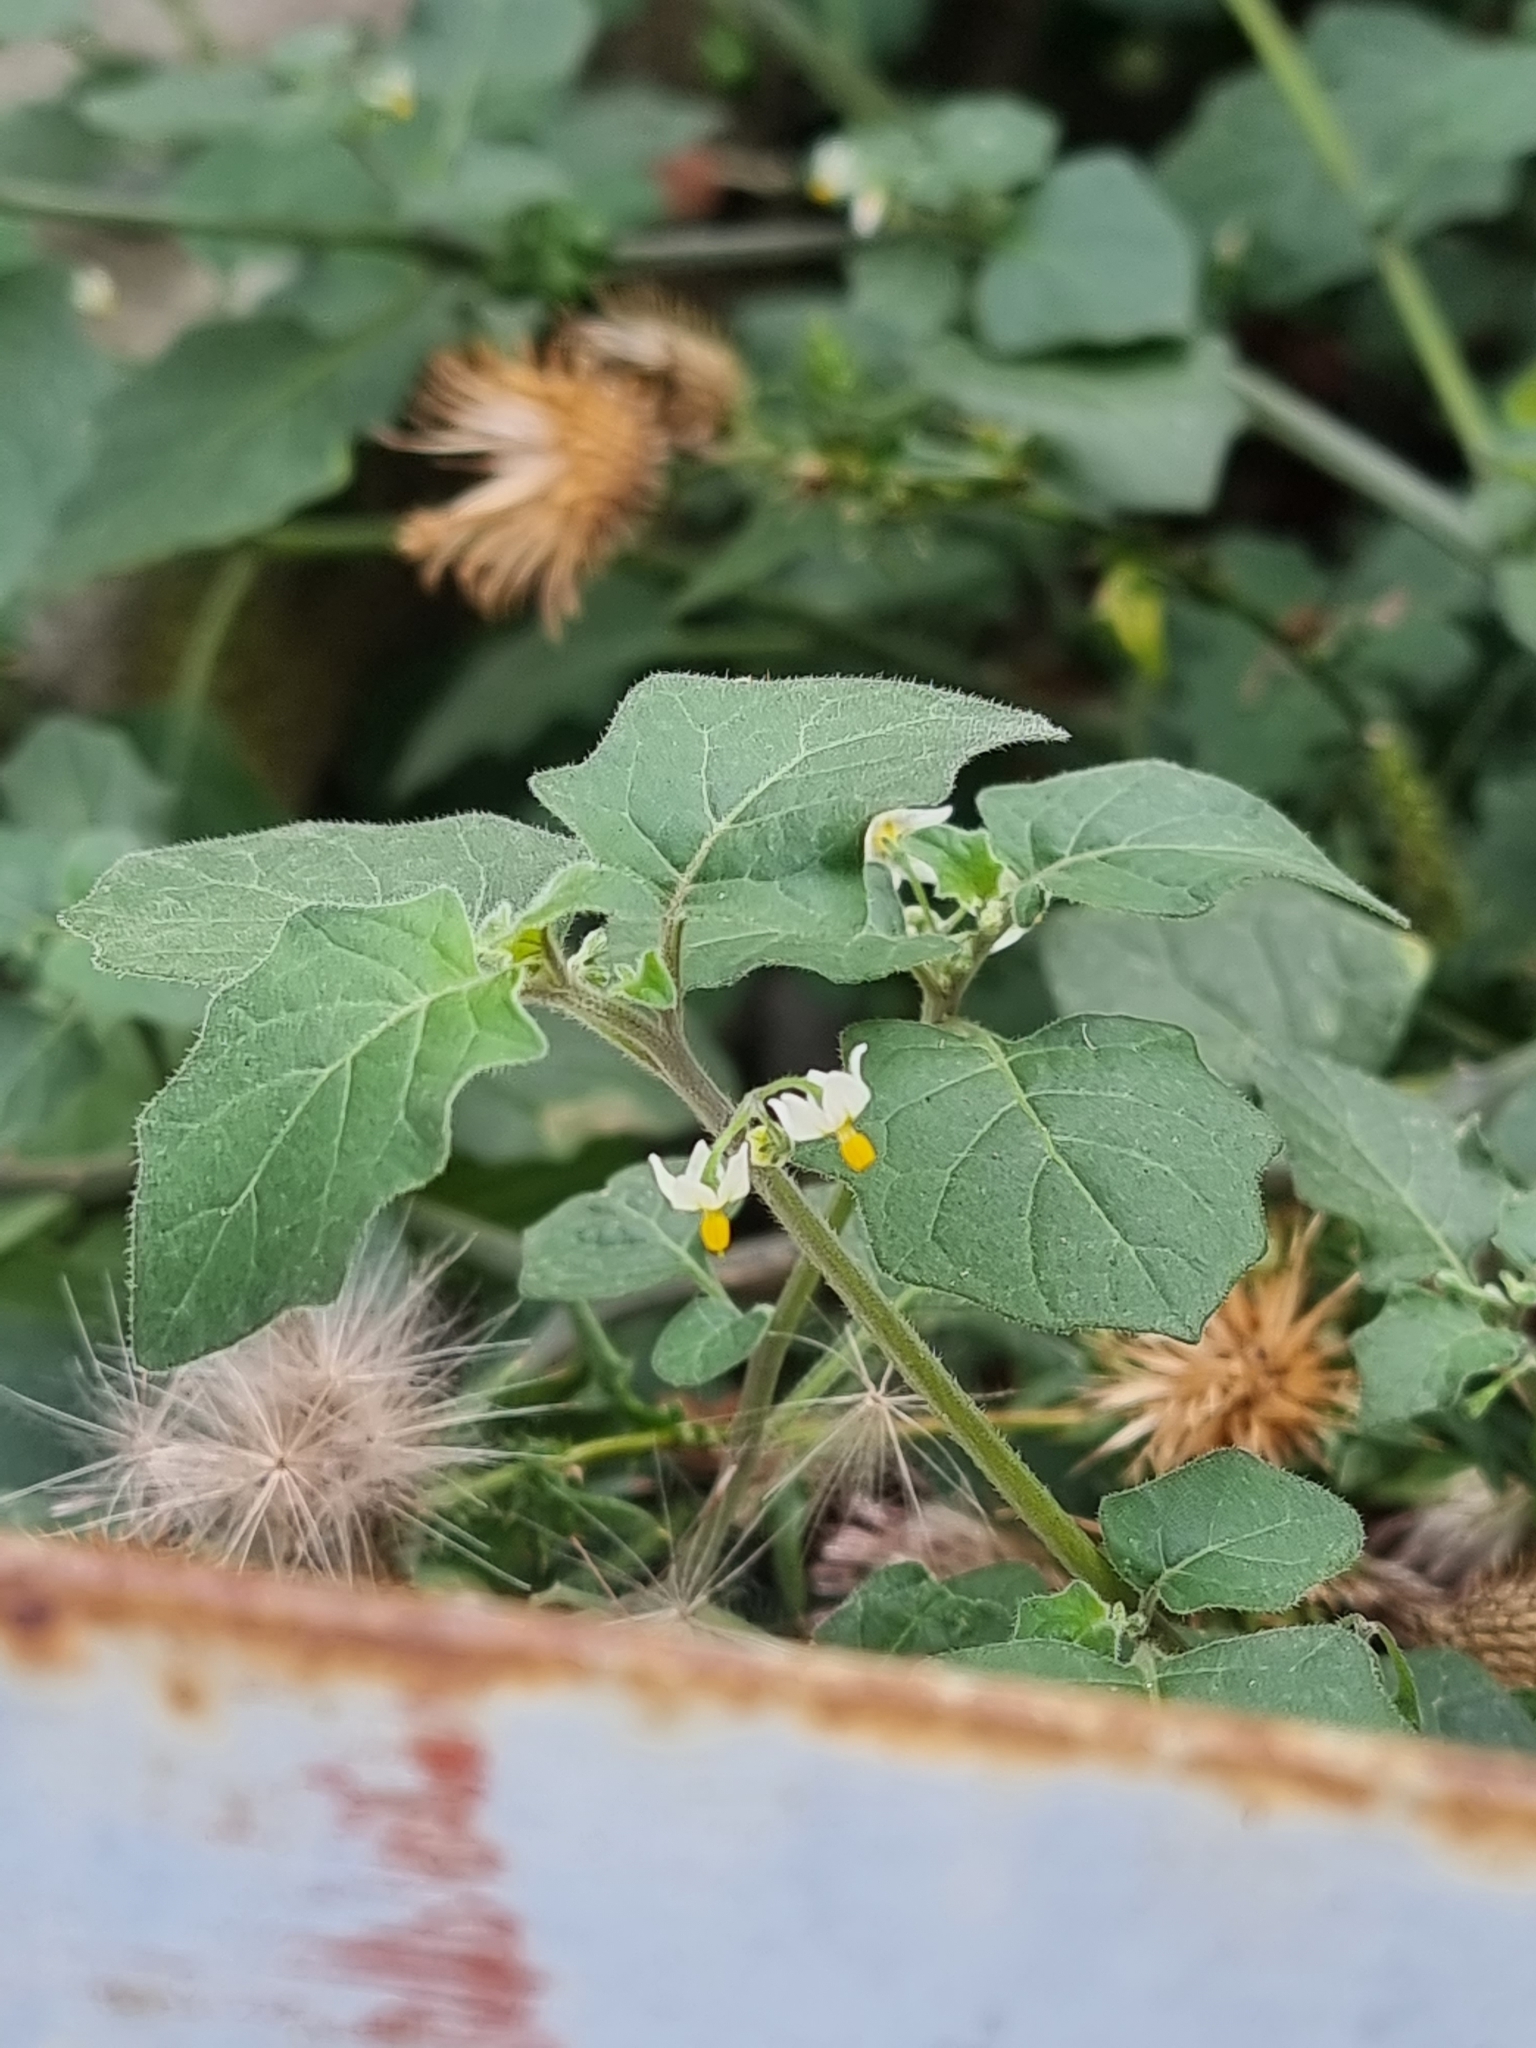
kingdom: Plantae
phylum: Tracheophyta
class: Magnoliopsida
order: Solanales
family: Solanaceae
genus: Solanum
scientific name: Solanum villosum
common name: Red nightshade
